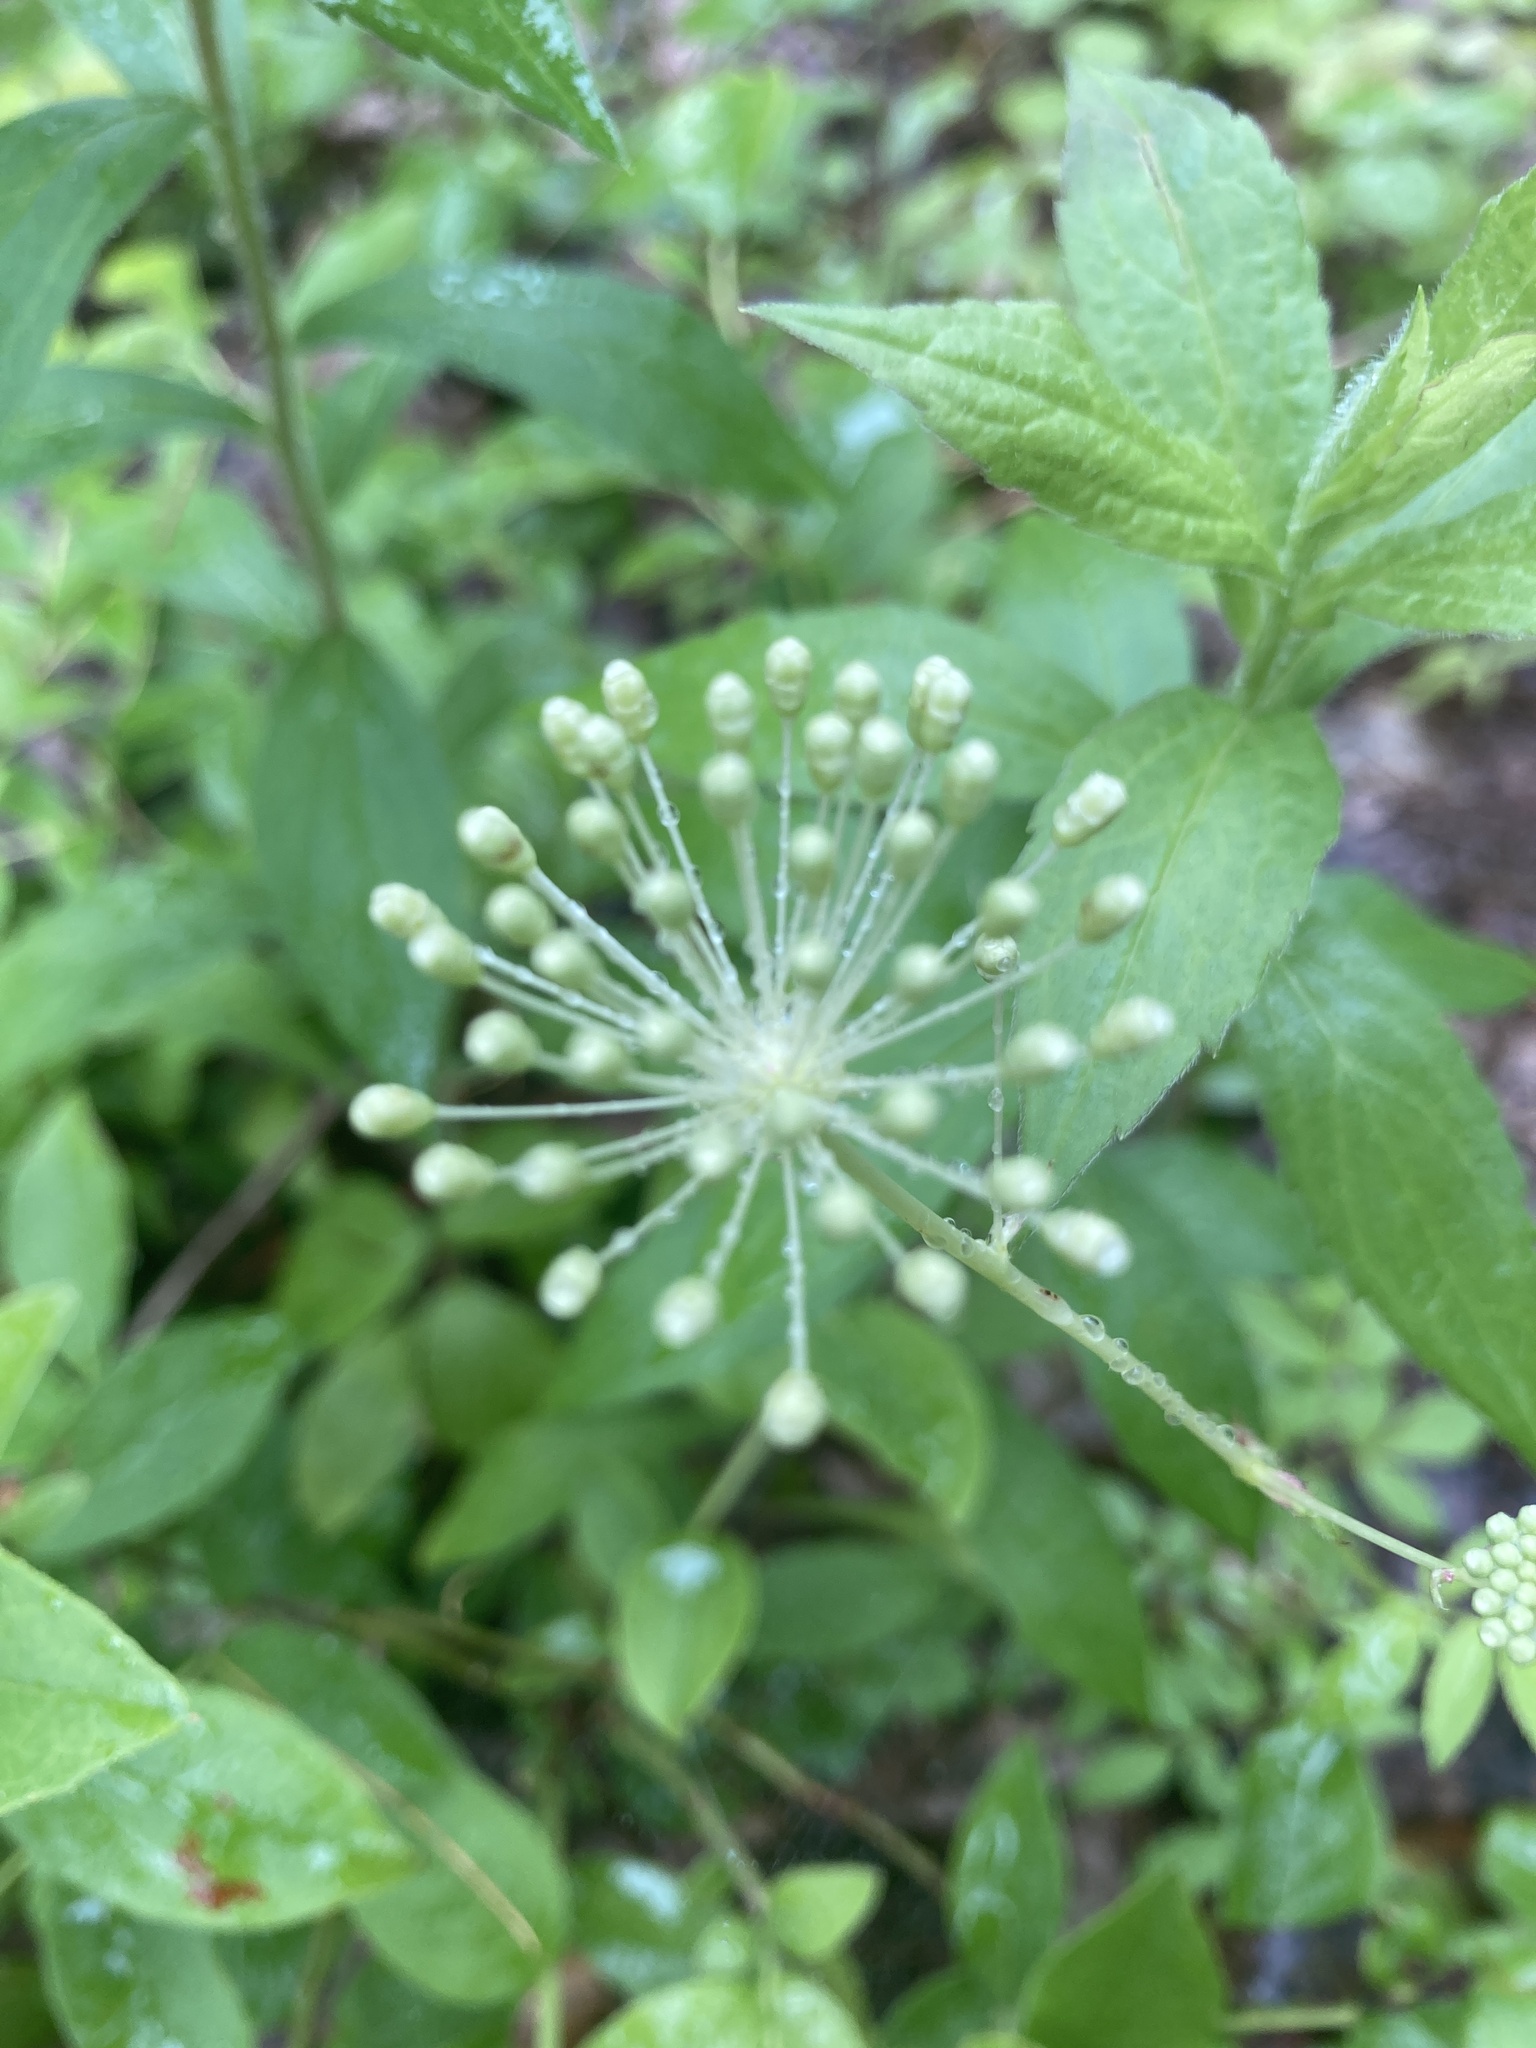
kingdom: Plantae
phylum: Tracheophyta
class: Magnoliopsida
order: Apiales
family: Araliaceae
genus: Aralia
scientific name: Aralia hispida
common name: Bristly sarsaparilla
